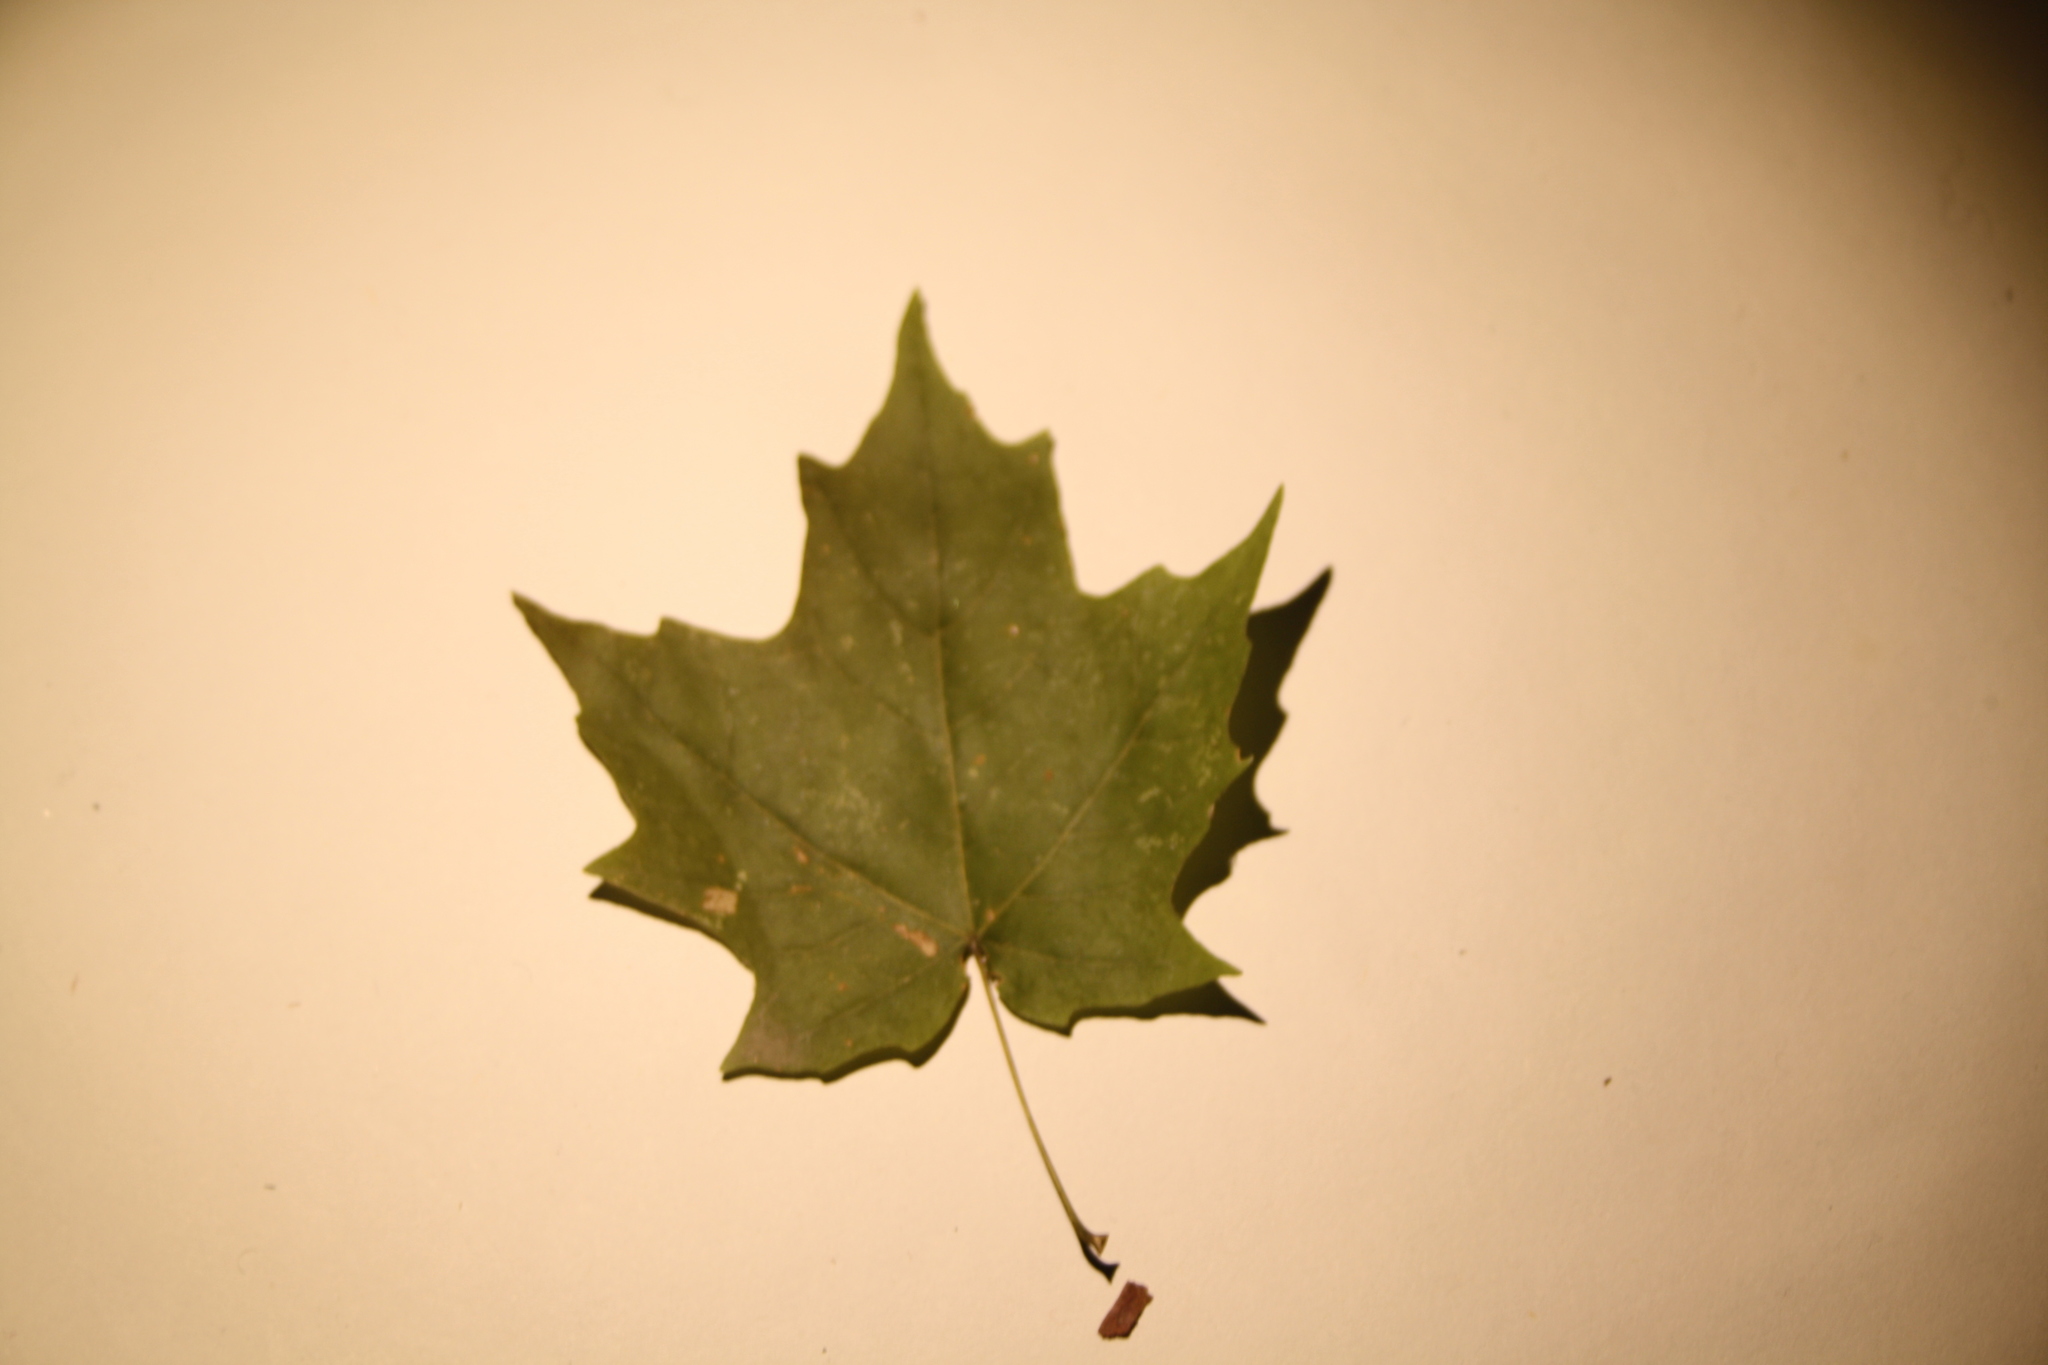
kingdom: Plantae
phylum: Tracheophyta
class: Magnoliopsida
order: Sapindales
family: Sapindaceae
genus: Acer
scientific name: Acer saccharum
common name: Sugar maple
